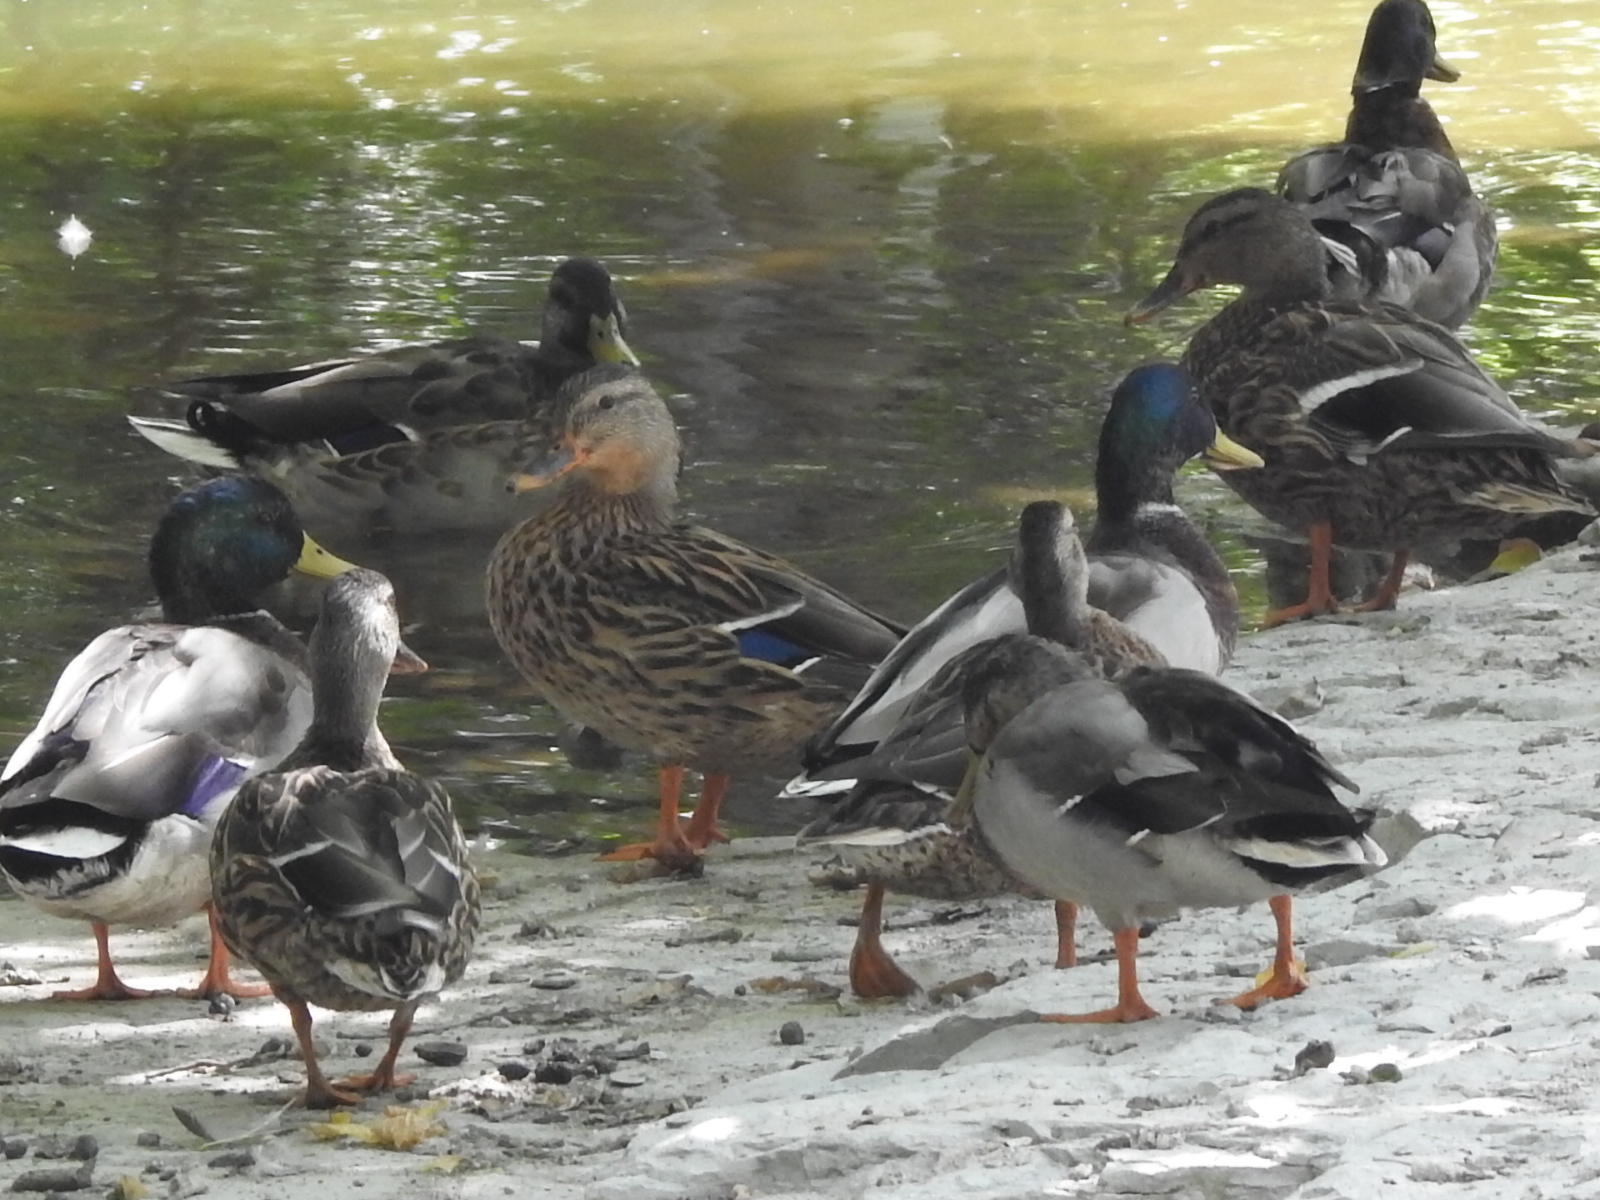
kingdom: Animalia
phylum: Chordata
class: Aves
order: Anseriformes
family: Anatidae
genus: Anas
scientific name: Anas platyrhynchos
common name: Mallard
